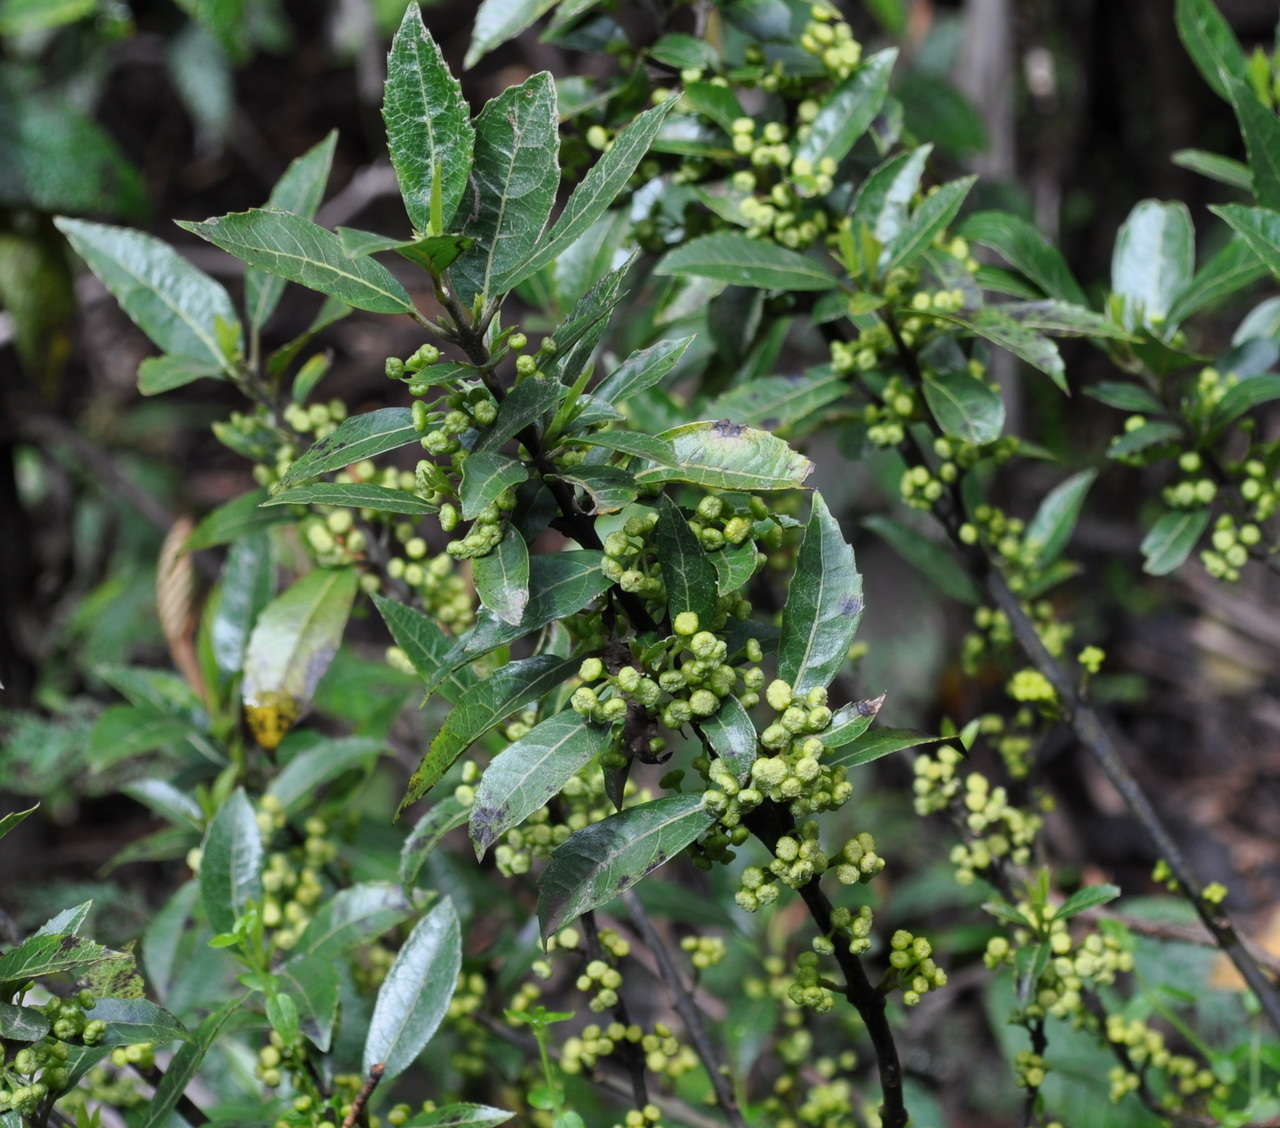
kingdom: Plantae
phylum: Tracheophyta
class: Magnoliopsida
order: Laurales
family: Monimiaceae
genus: Hedycarya
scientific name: Hedycarya angustifolia
